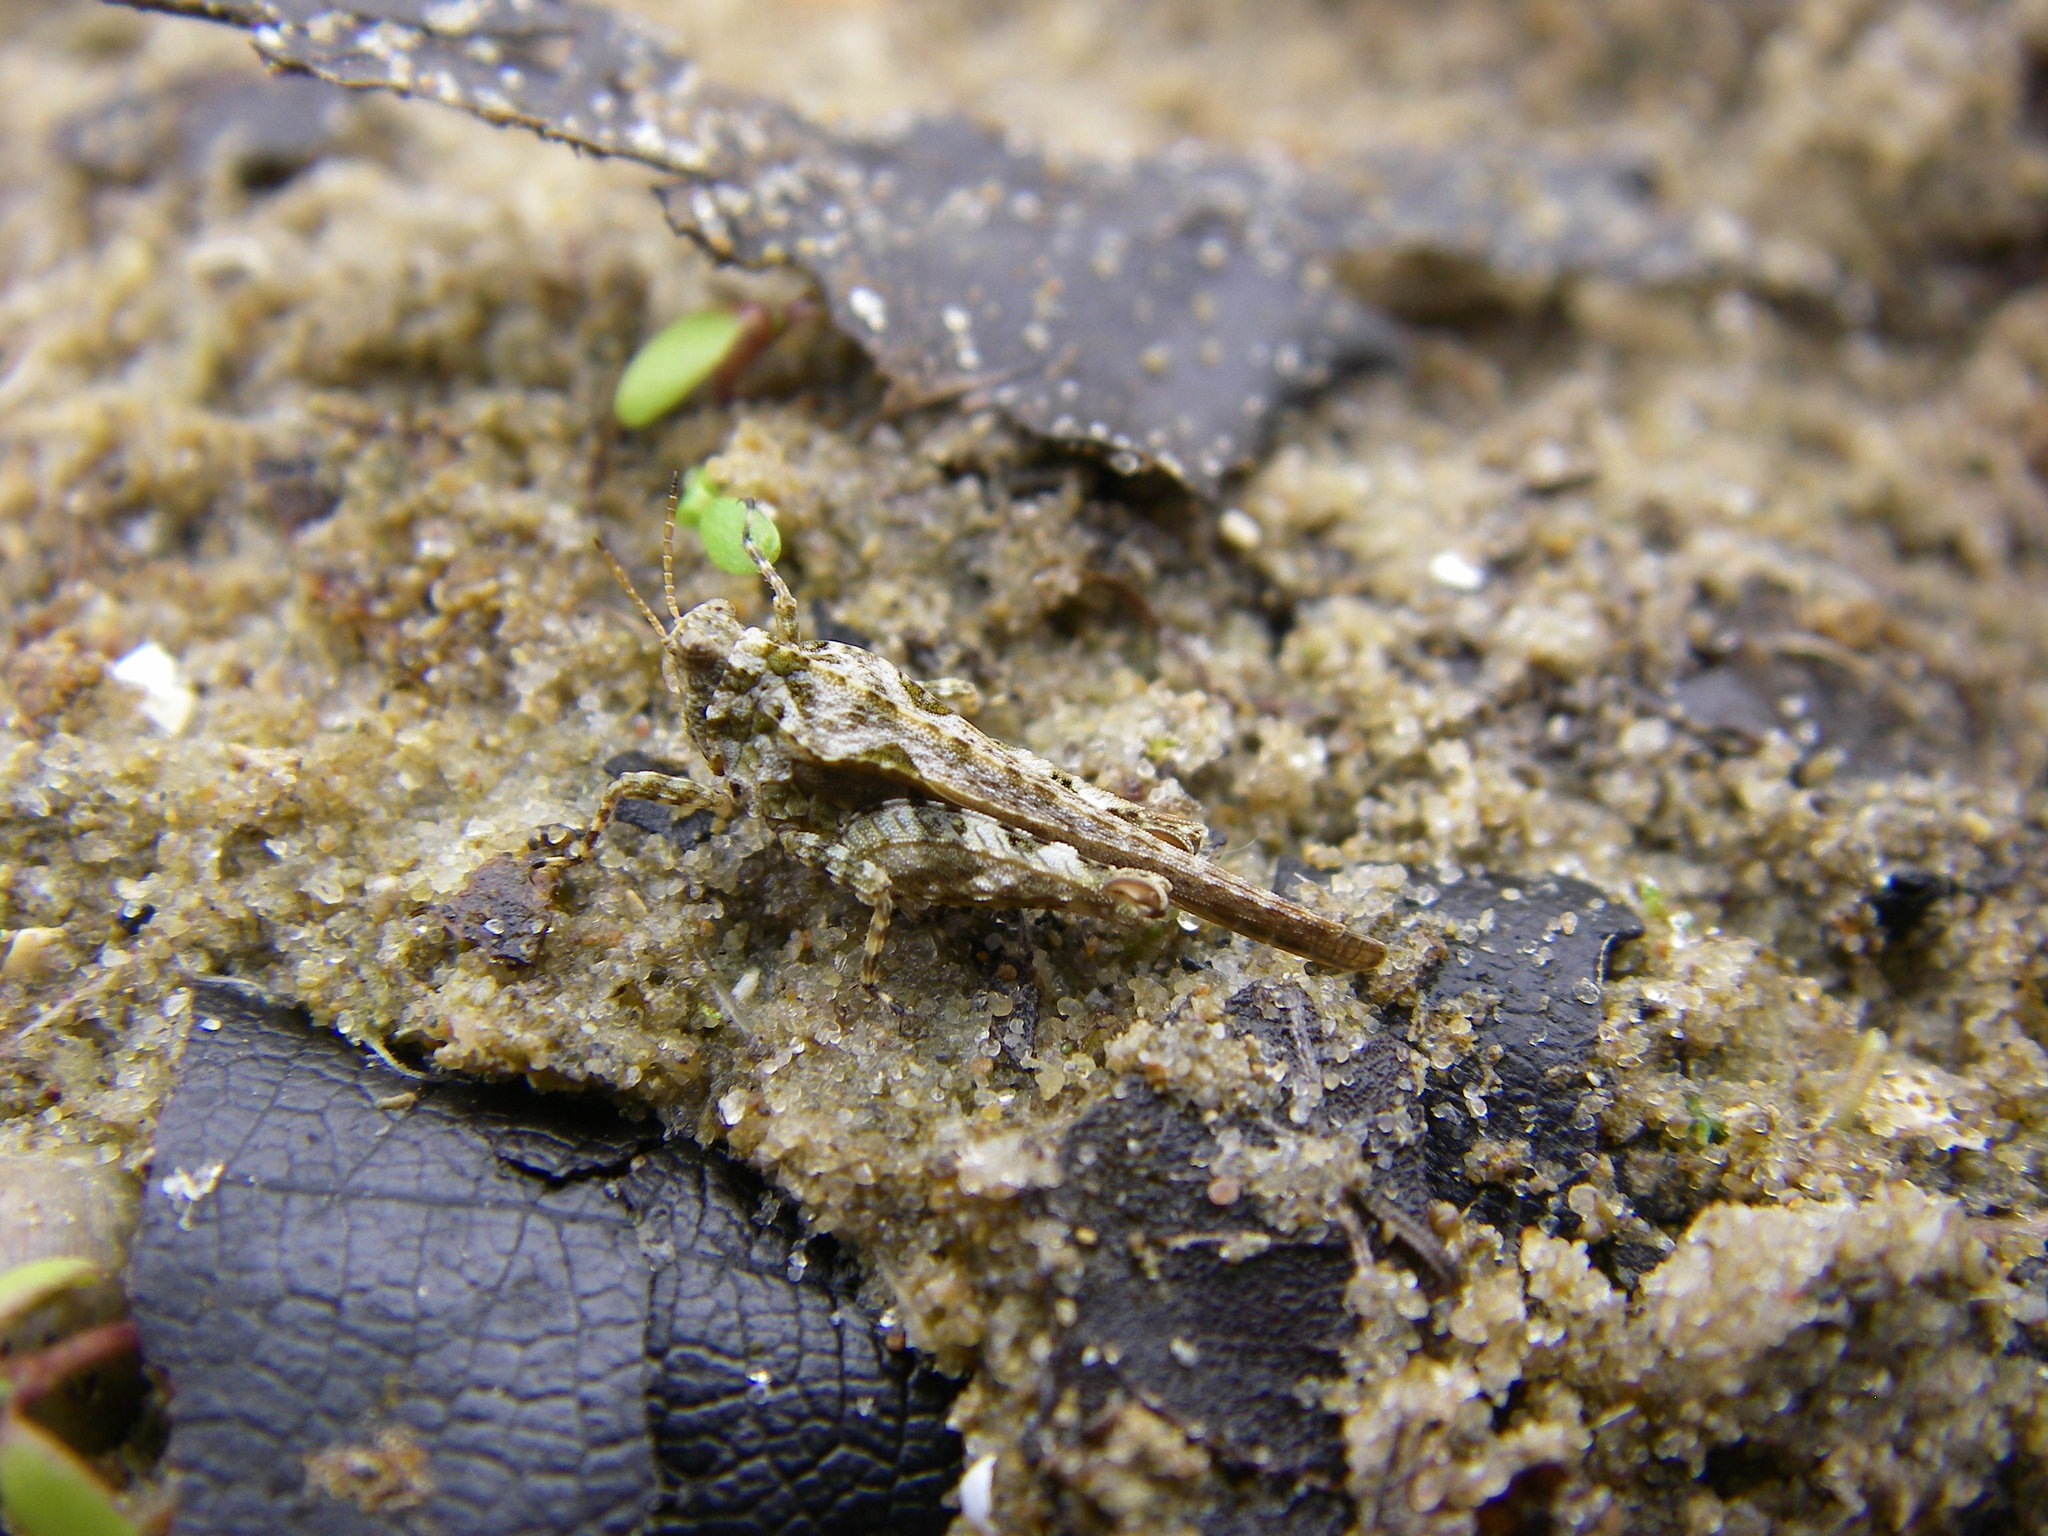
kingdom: Animalia
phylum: Arthropoda
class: Insecta
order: Orthoptera
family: Tetrigidae
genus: Tetrix
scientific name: Tetrix ceperoi
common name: Cepero's ground-hopper
